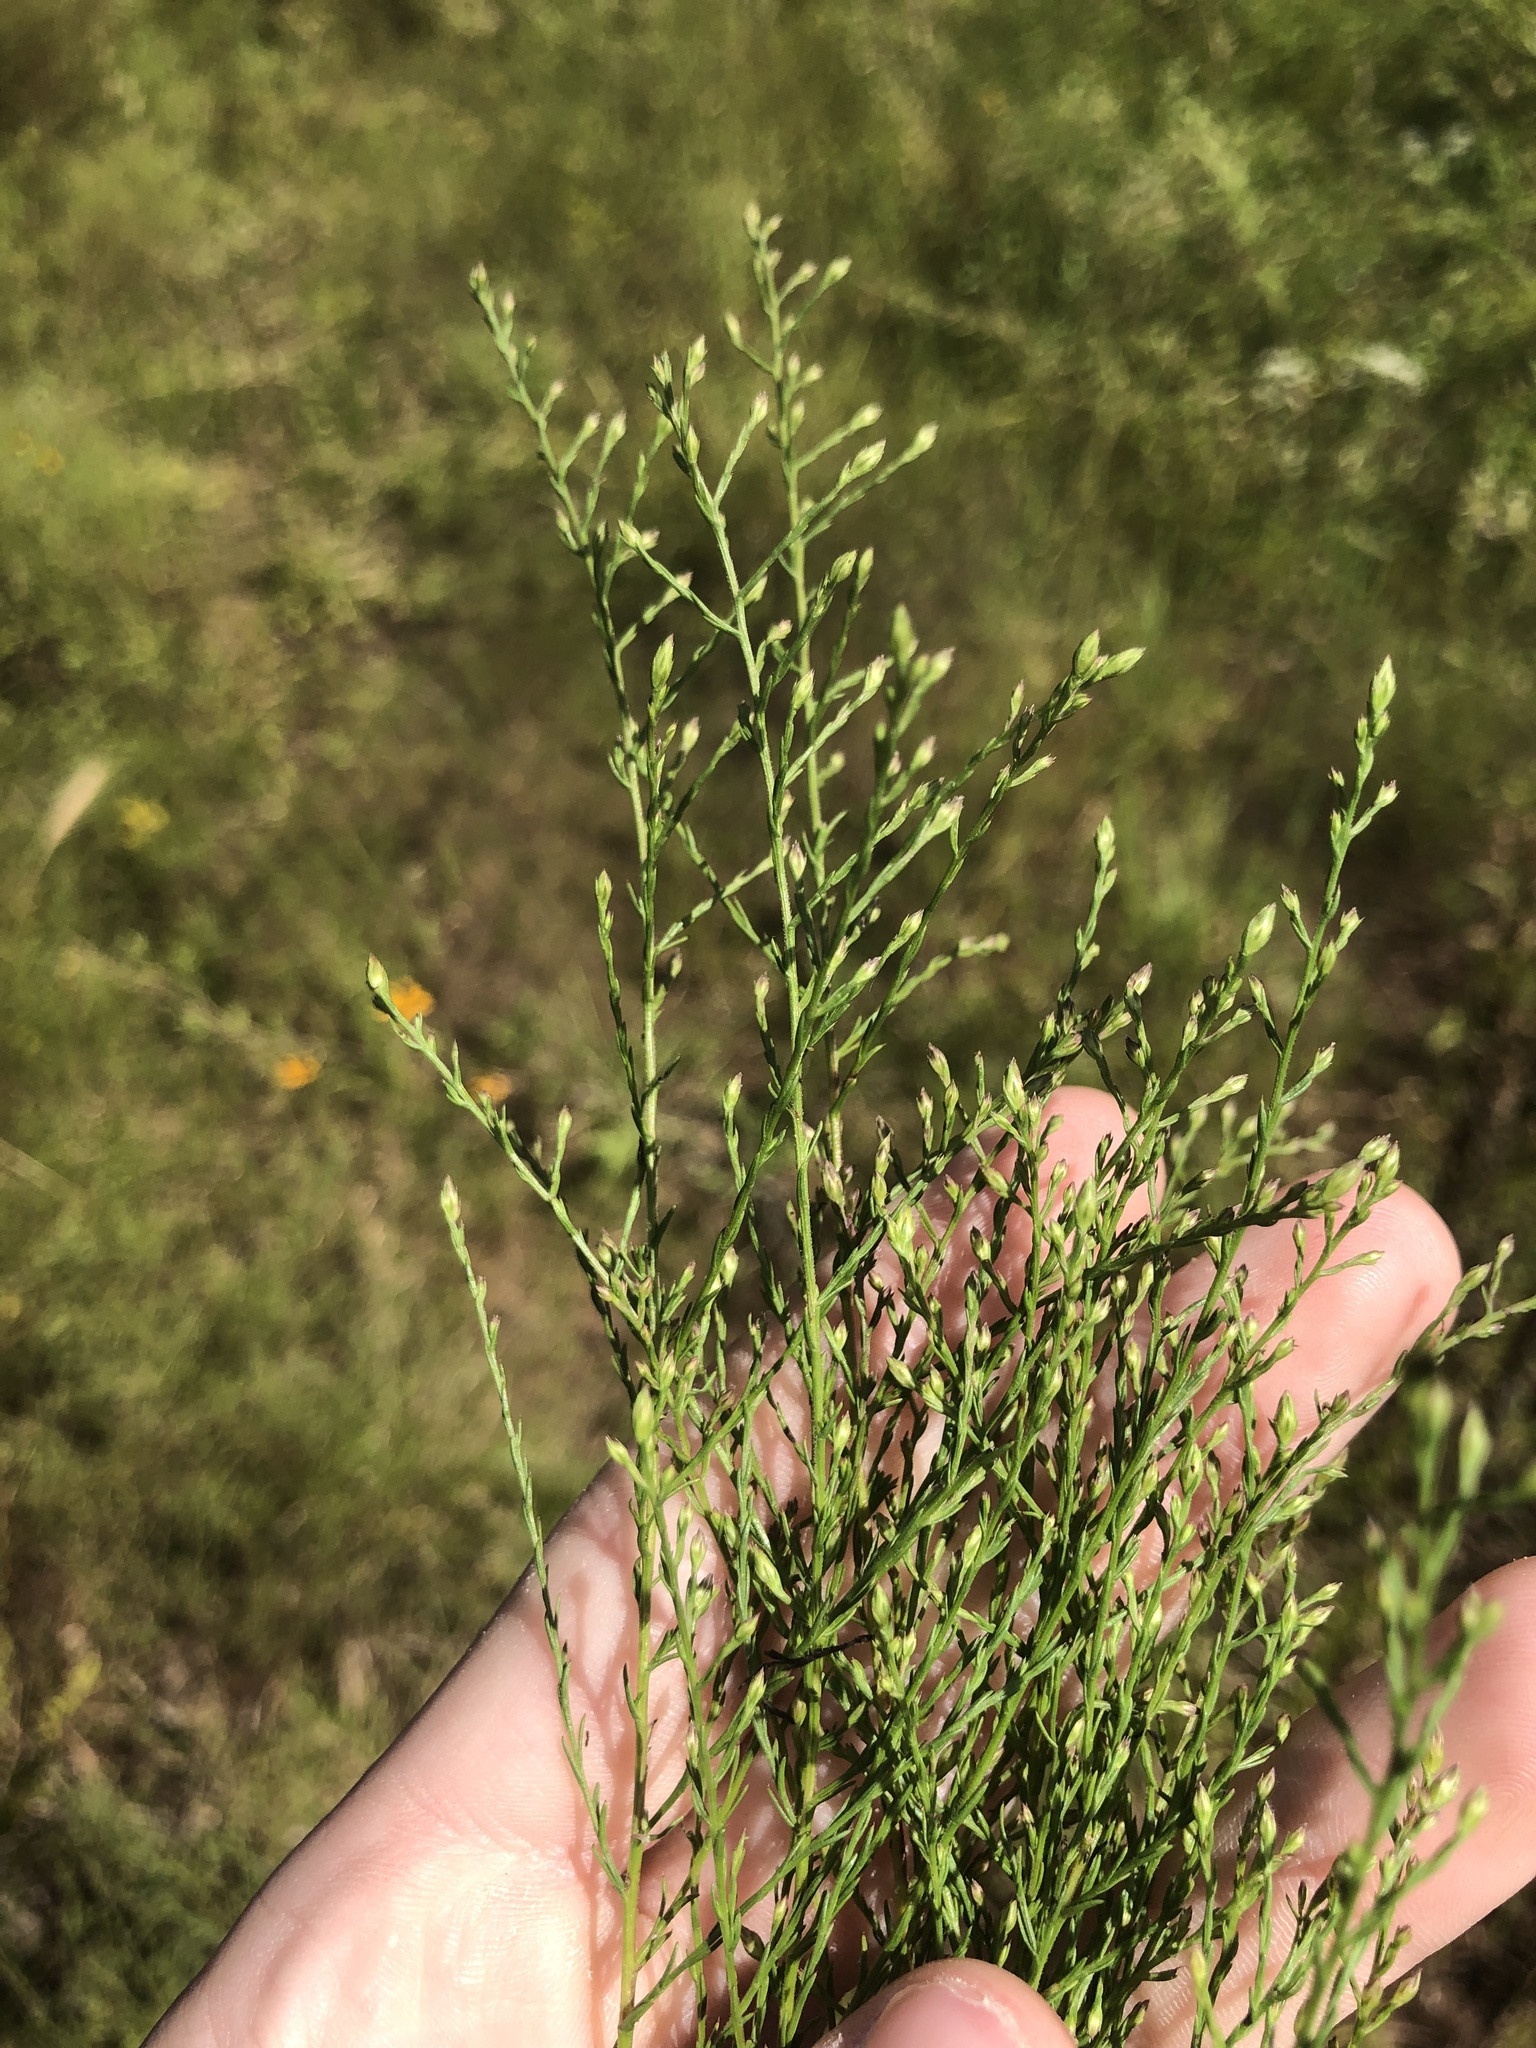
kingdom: Plantae
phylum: Tracheophyta
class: Magnoliopsida
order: Asterales
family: Asteraceae
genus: Symphyotrichum
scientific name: Symphyotrichum depauperatum
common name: Serpentine aster
